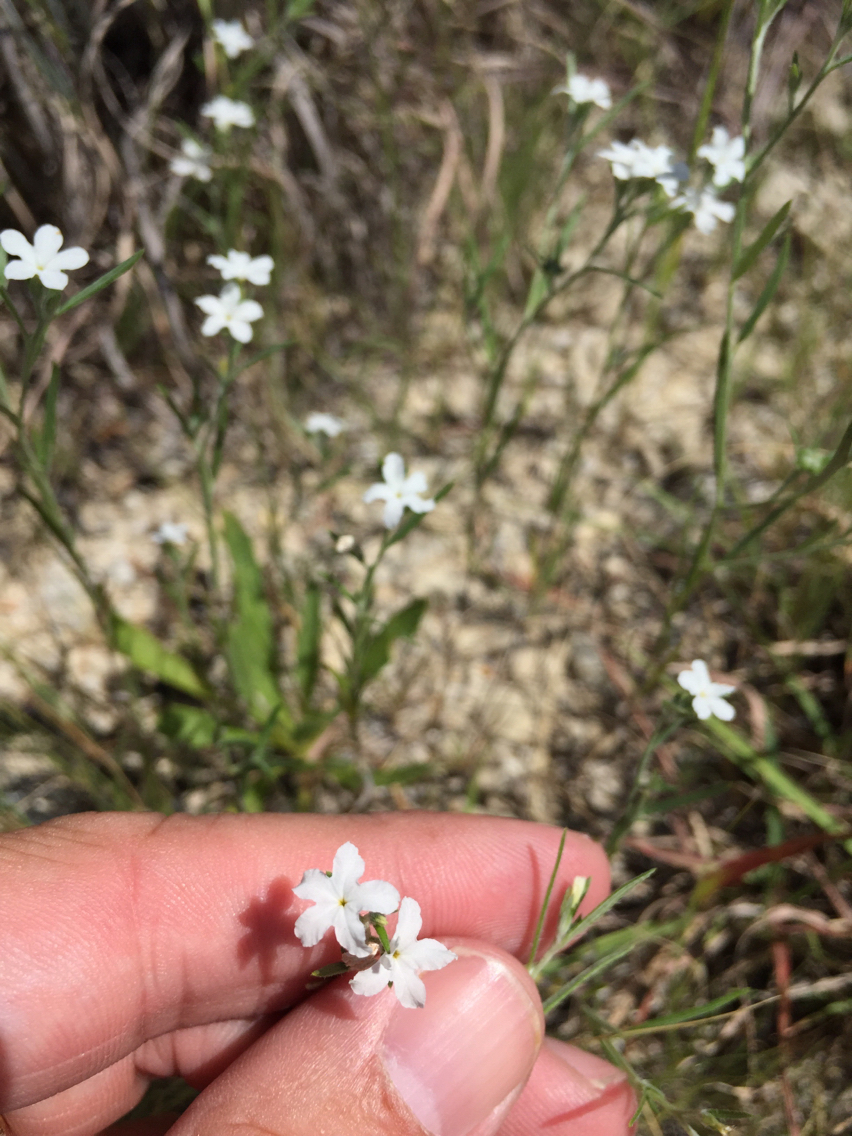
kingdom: Plantae
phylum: Tracheophyta
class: Magnoliopsida
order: Boraginales
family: Heliotropiaceae
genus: Euploca
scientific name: Euploca tenella
